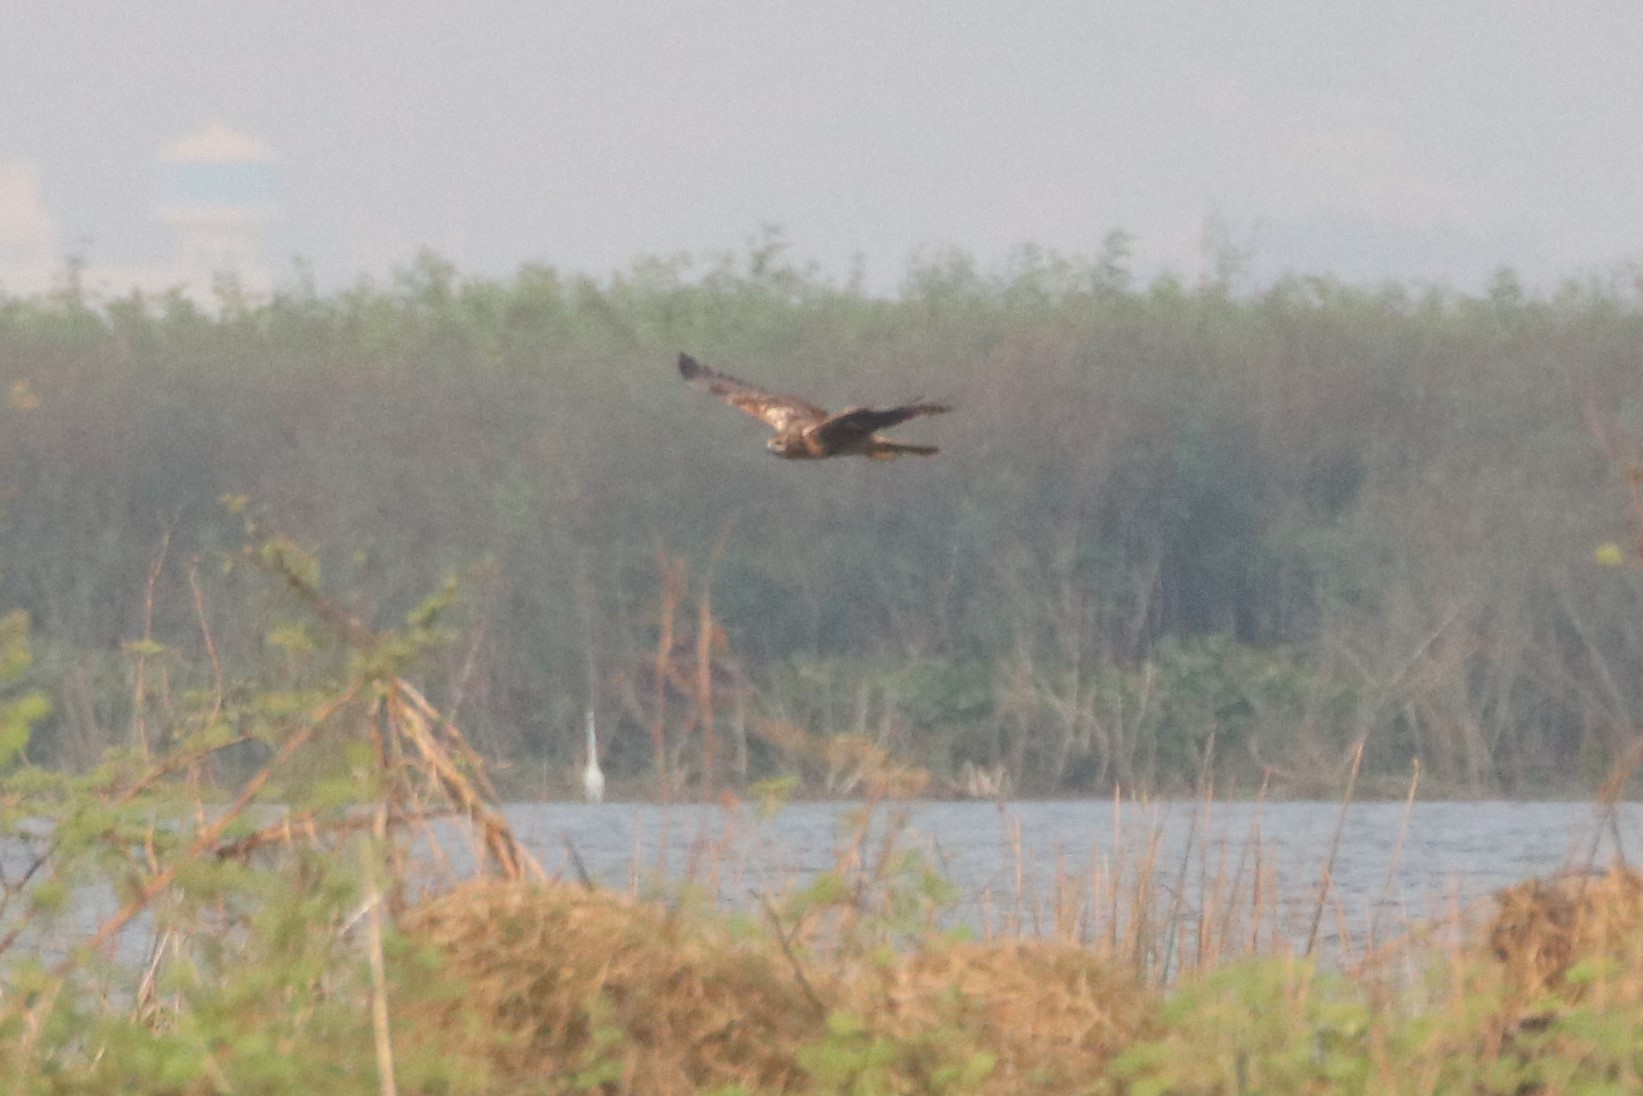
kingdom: Animalia
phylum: Chordata
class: Aves
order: Accipitriformes
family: Accipitridae
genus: Circus
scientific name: Circus spilonotus
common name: Eastern marsh-harrier
